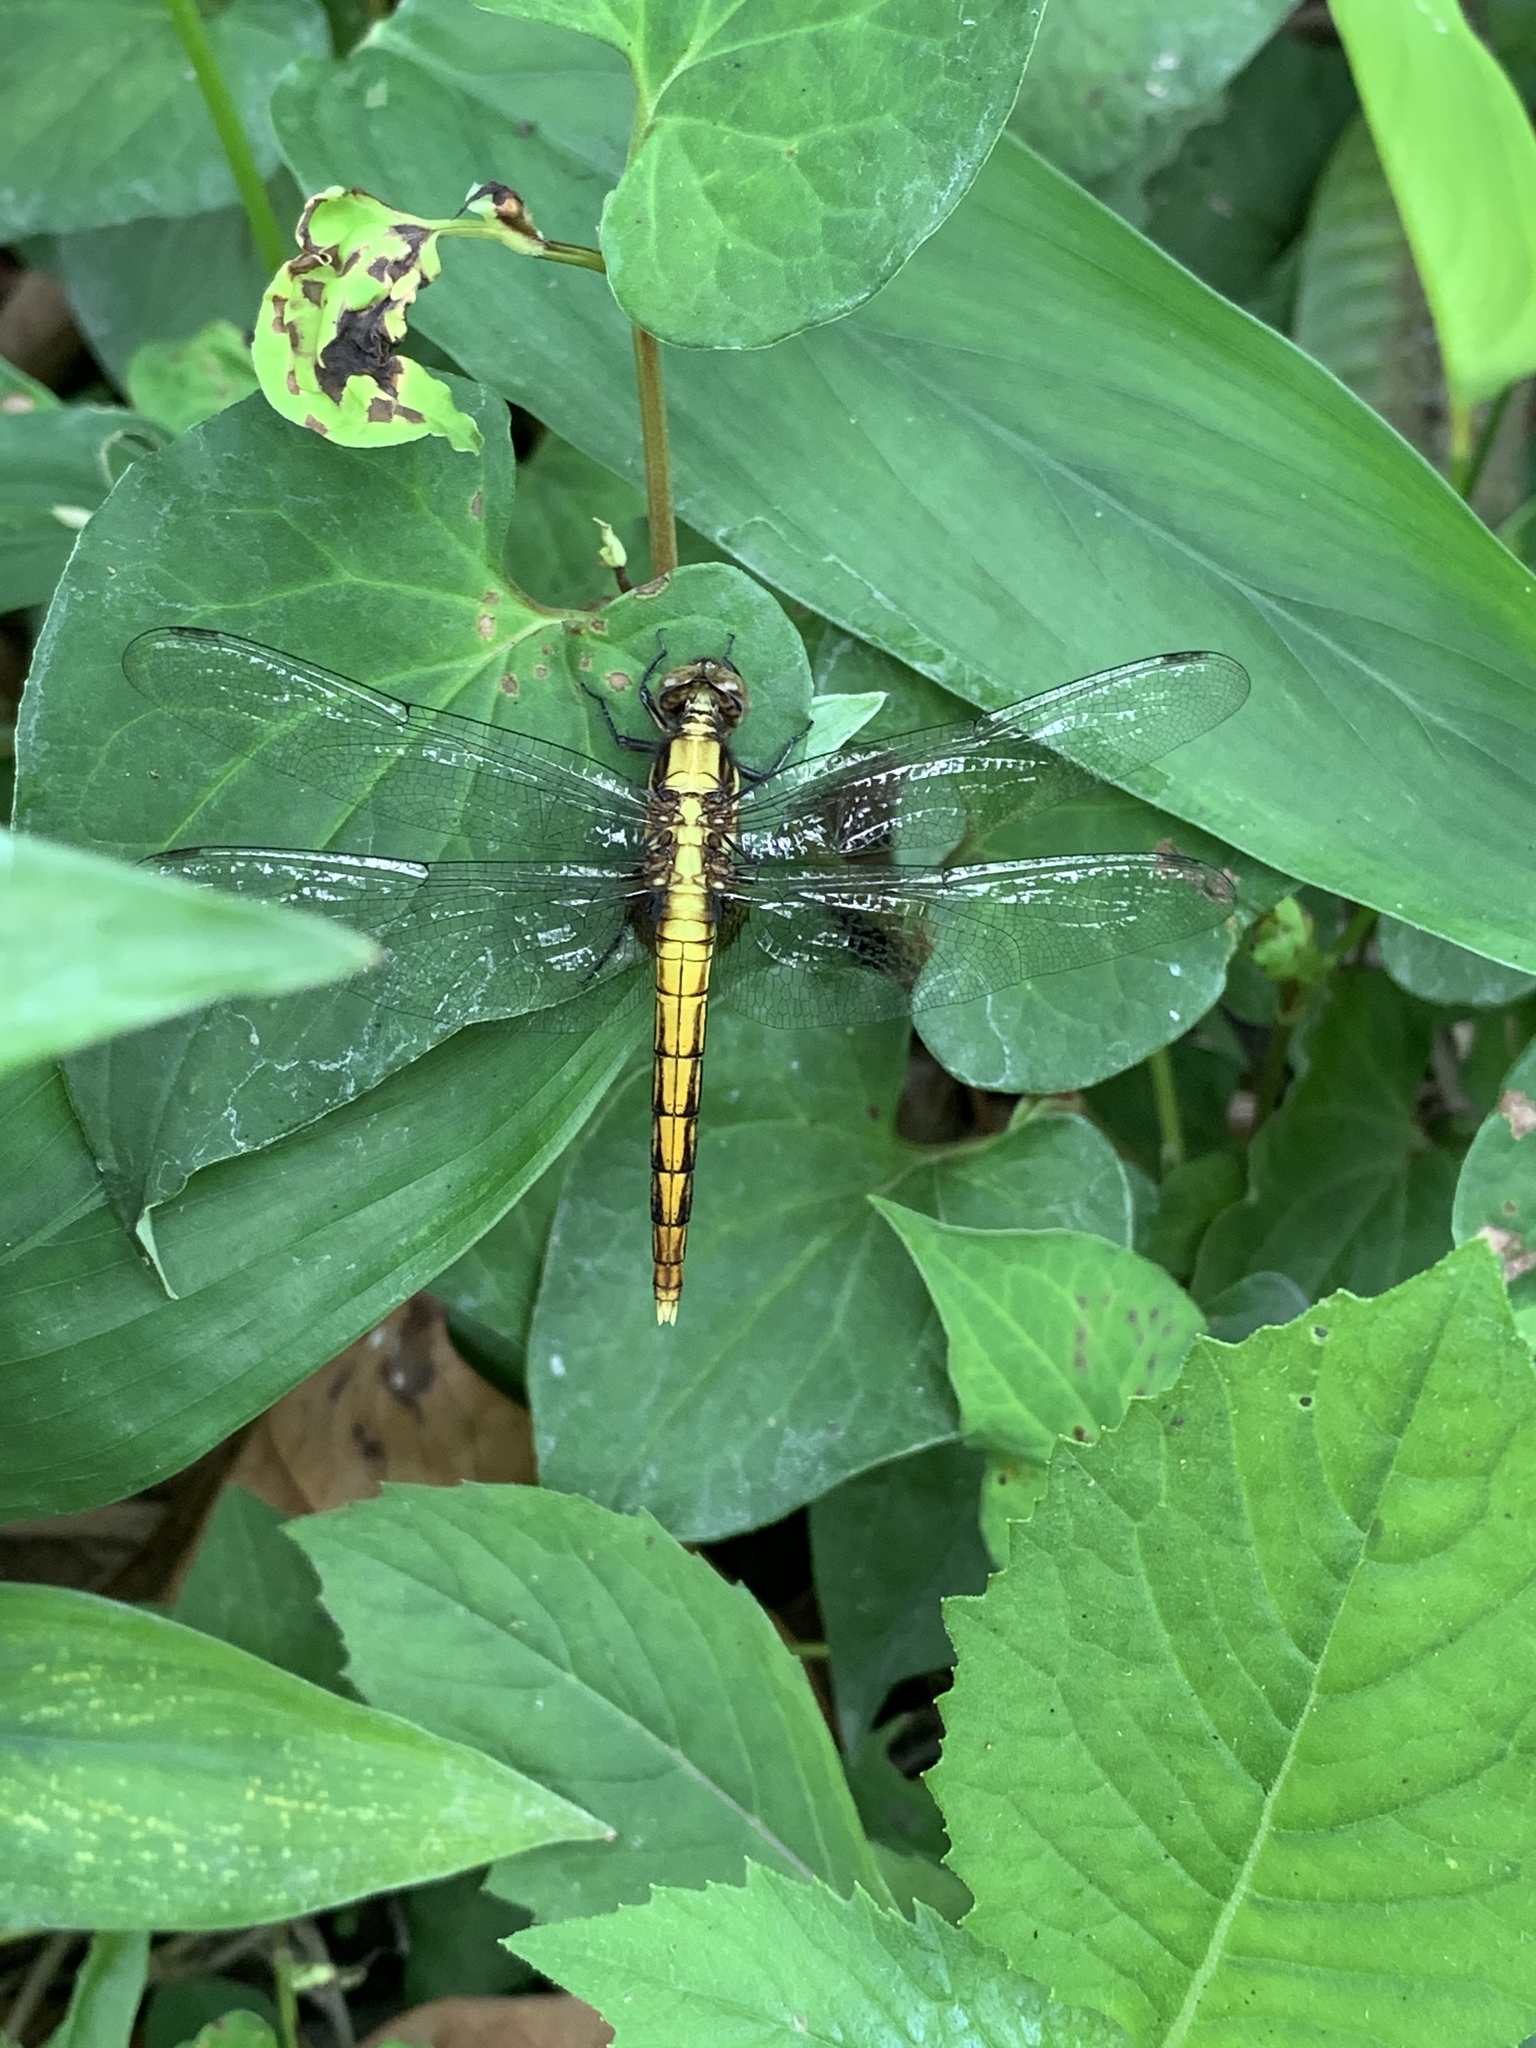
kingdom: Animalia
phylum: Arthropoda
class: Insecta
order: Odonata
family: Libellulidae
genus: Orthetrum
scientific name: Orthetrum triangulare
